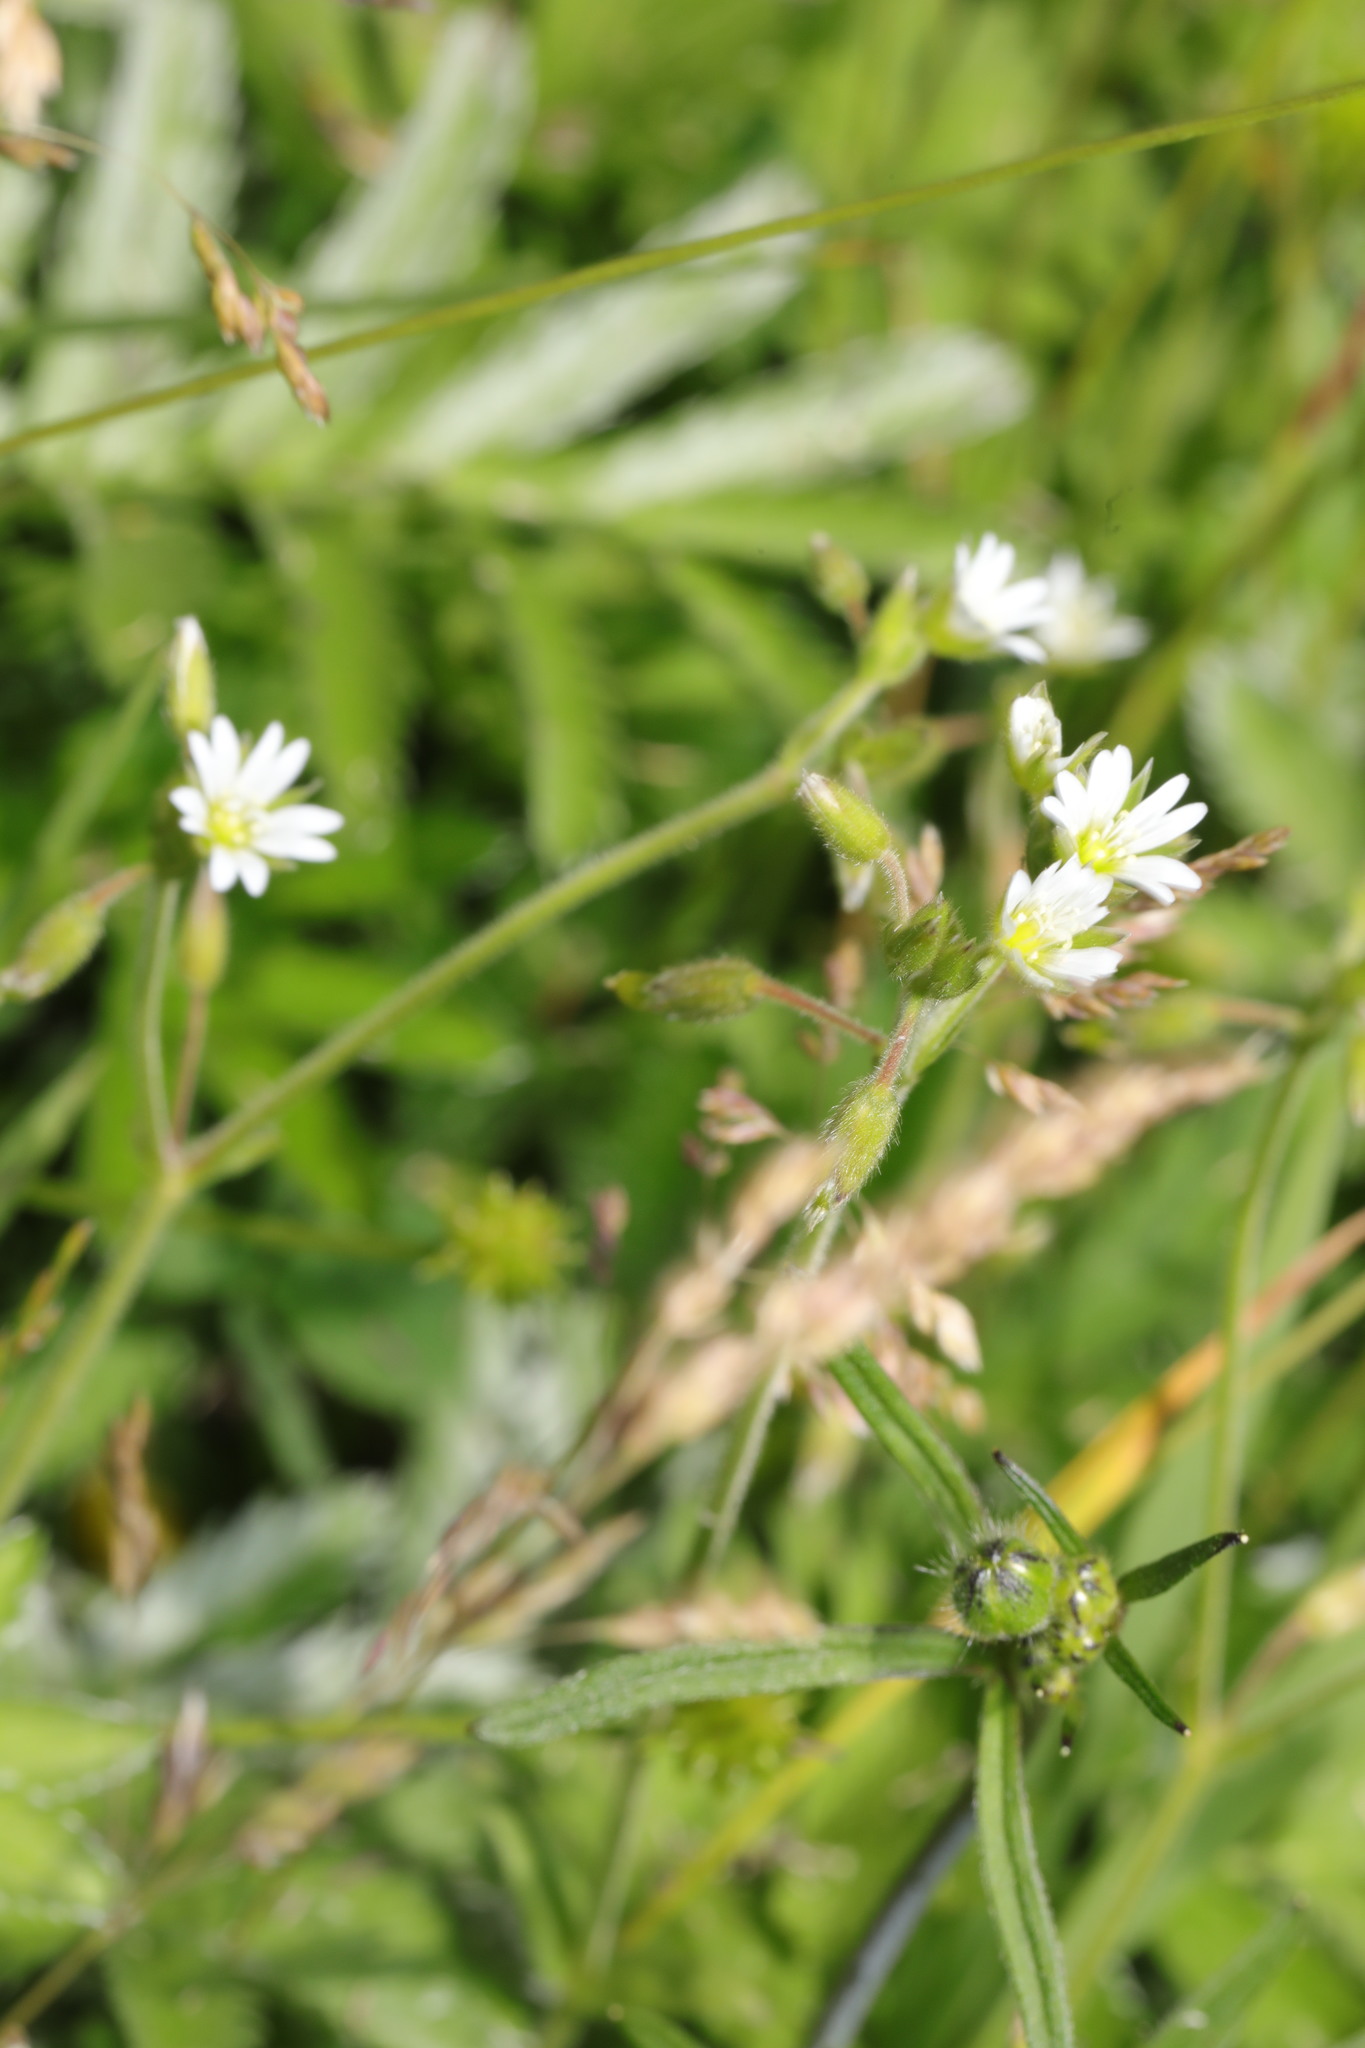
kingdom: Plantae
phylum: Tracheophyta
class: Magnoliopsida
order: Caryophyllales
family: Caryophyllaceae
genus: Cerastium
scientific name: Cerastium fontanum
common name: Common mouse-ear
